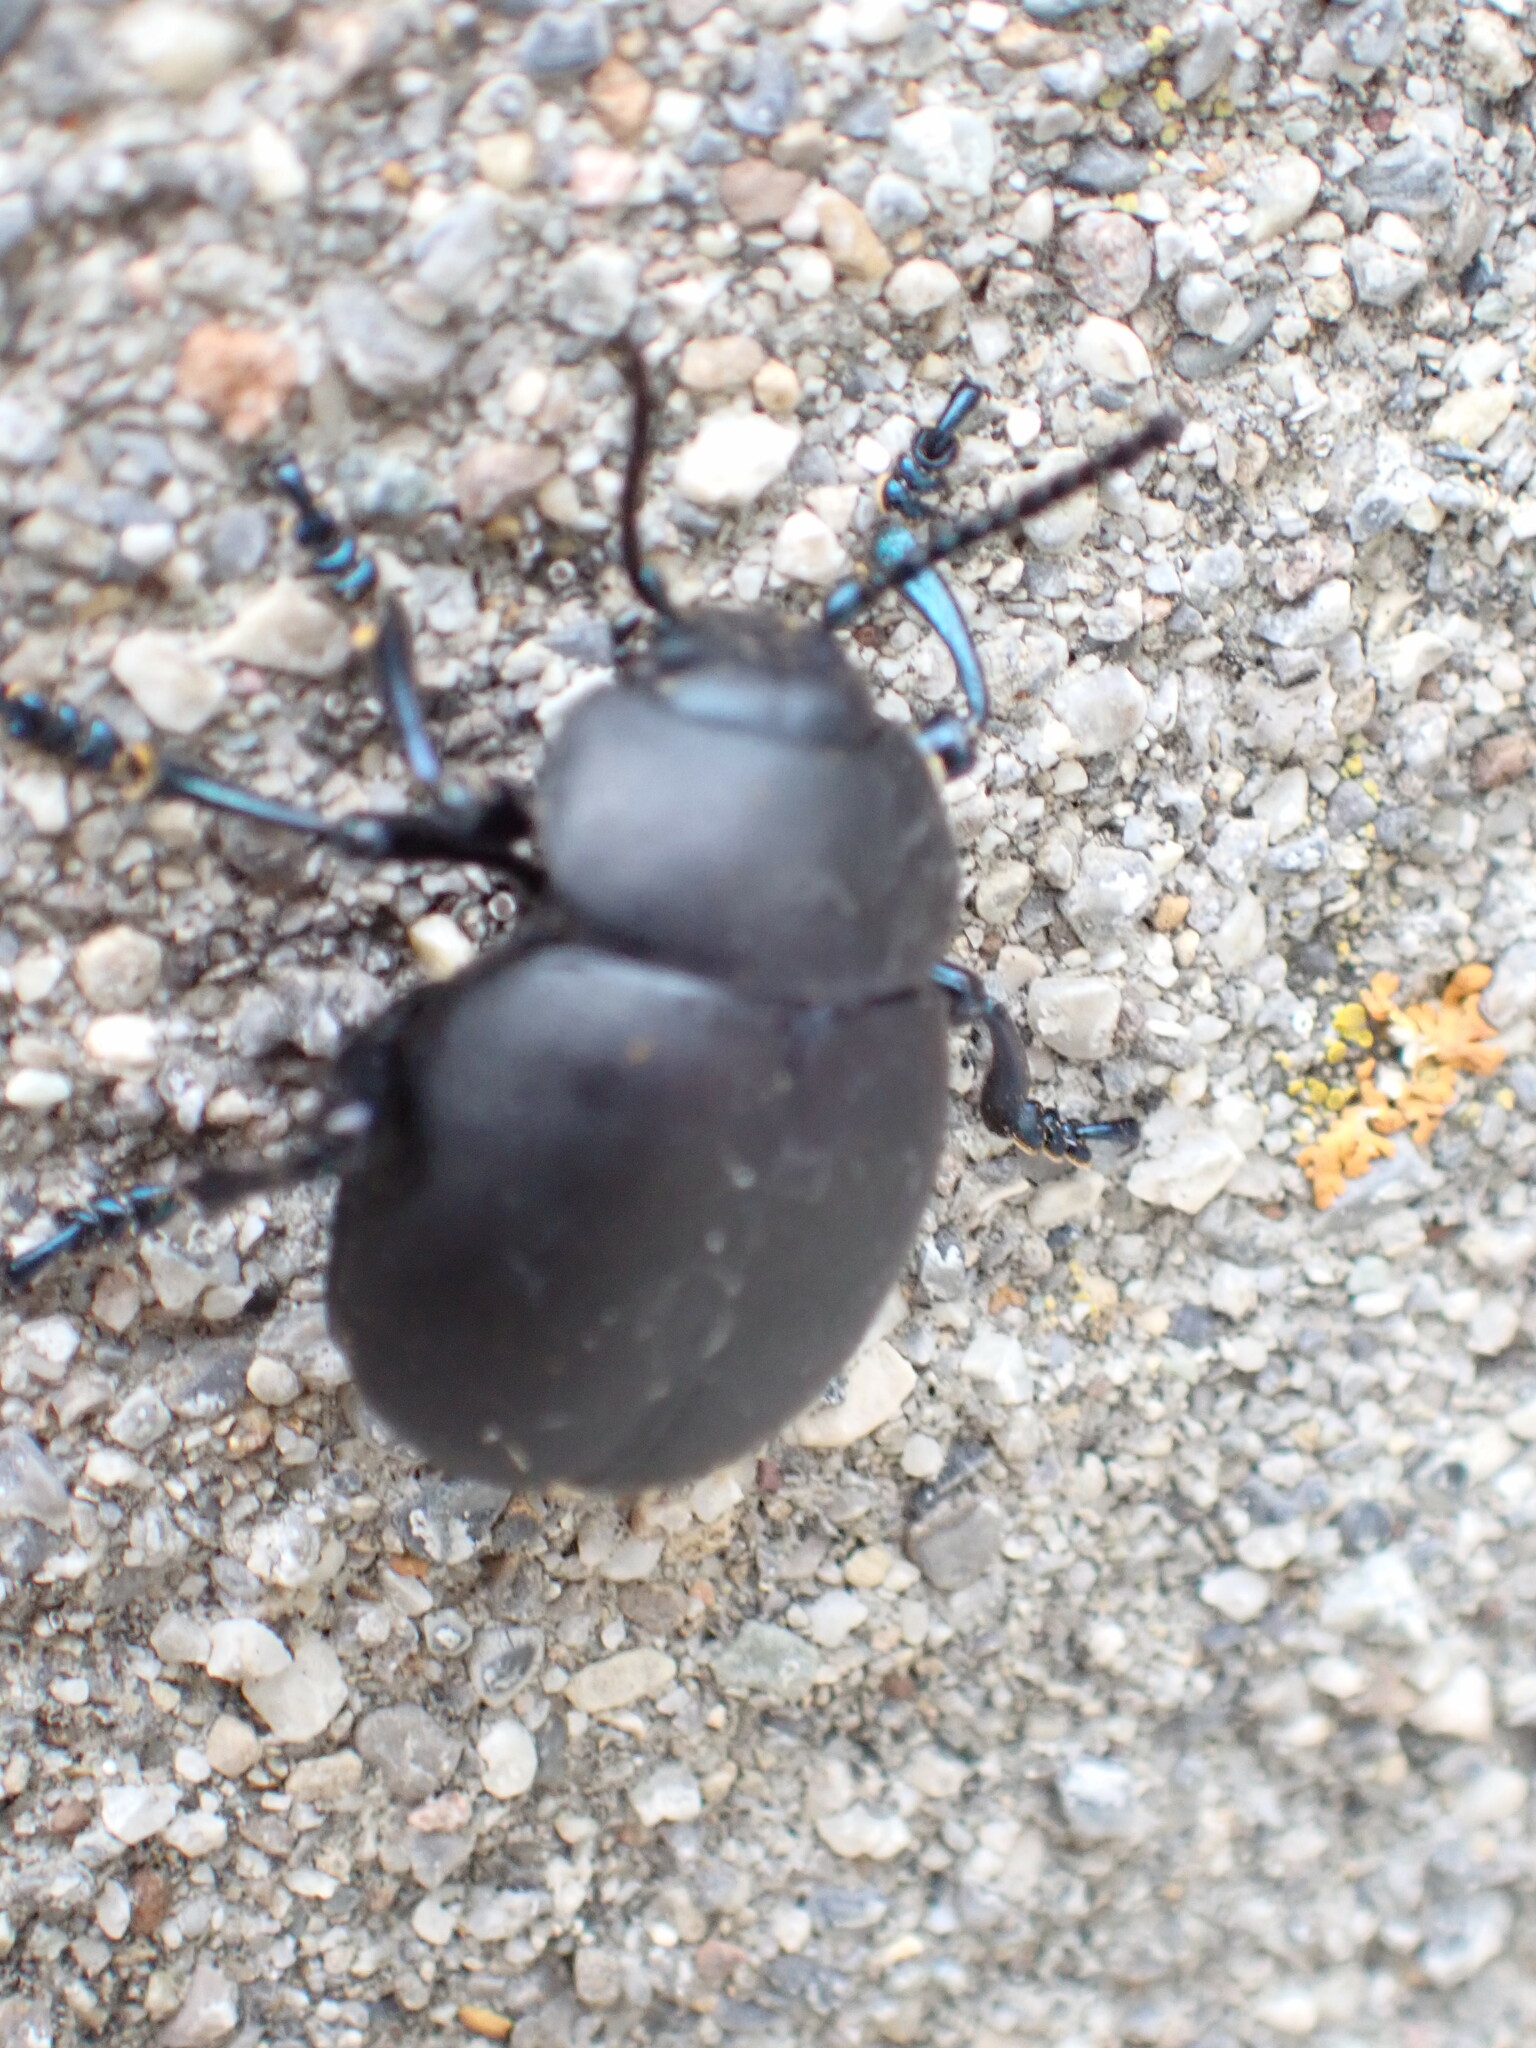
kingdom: Animalia
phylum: Arthropoda
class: Insecta
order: Coleoptera
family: Chrysomelidae
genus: Timarcha
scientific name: Timarcha tenebricosa
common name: Bloody-nosed beetle
